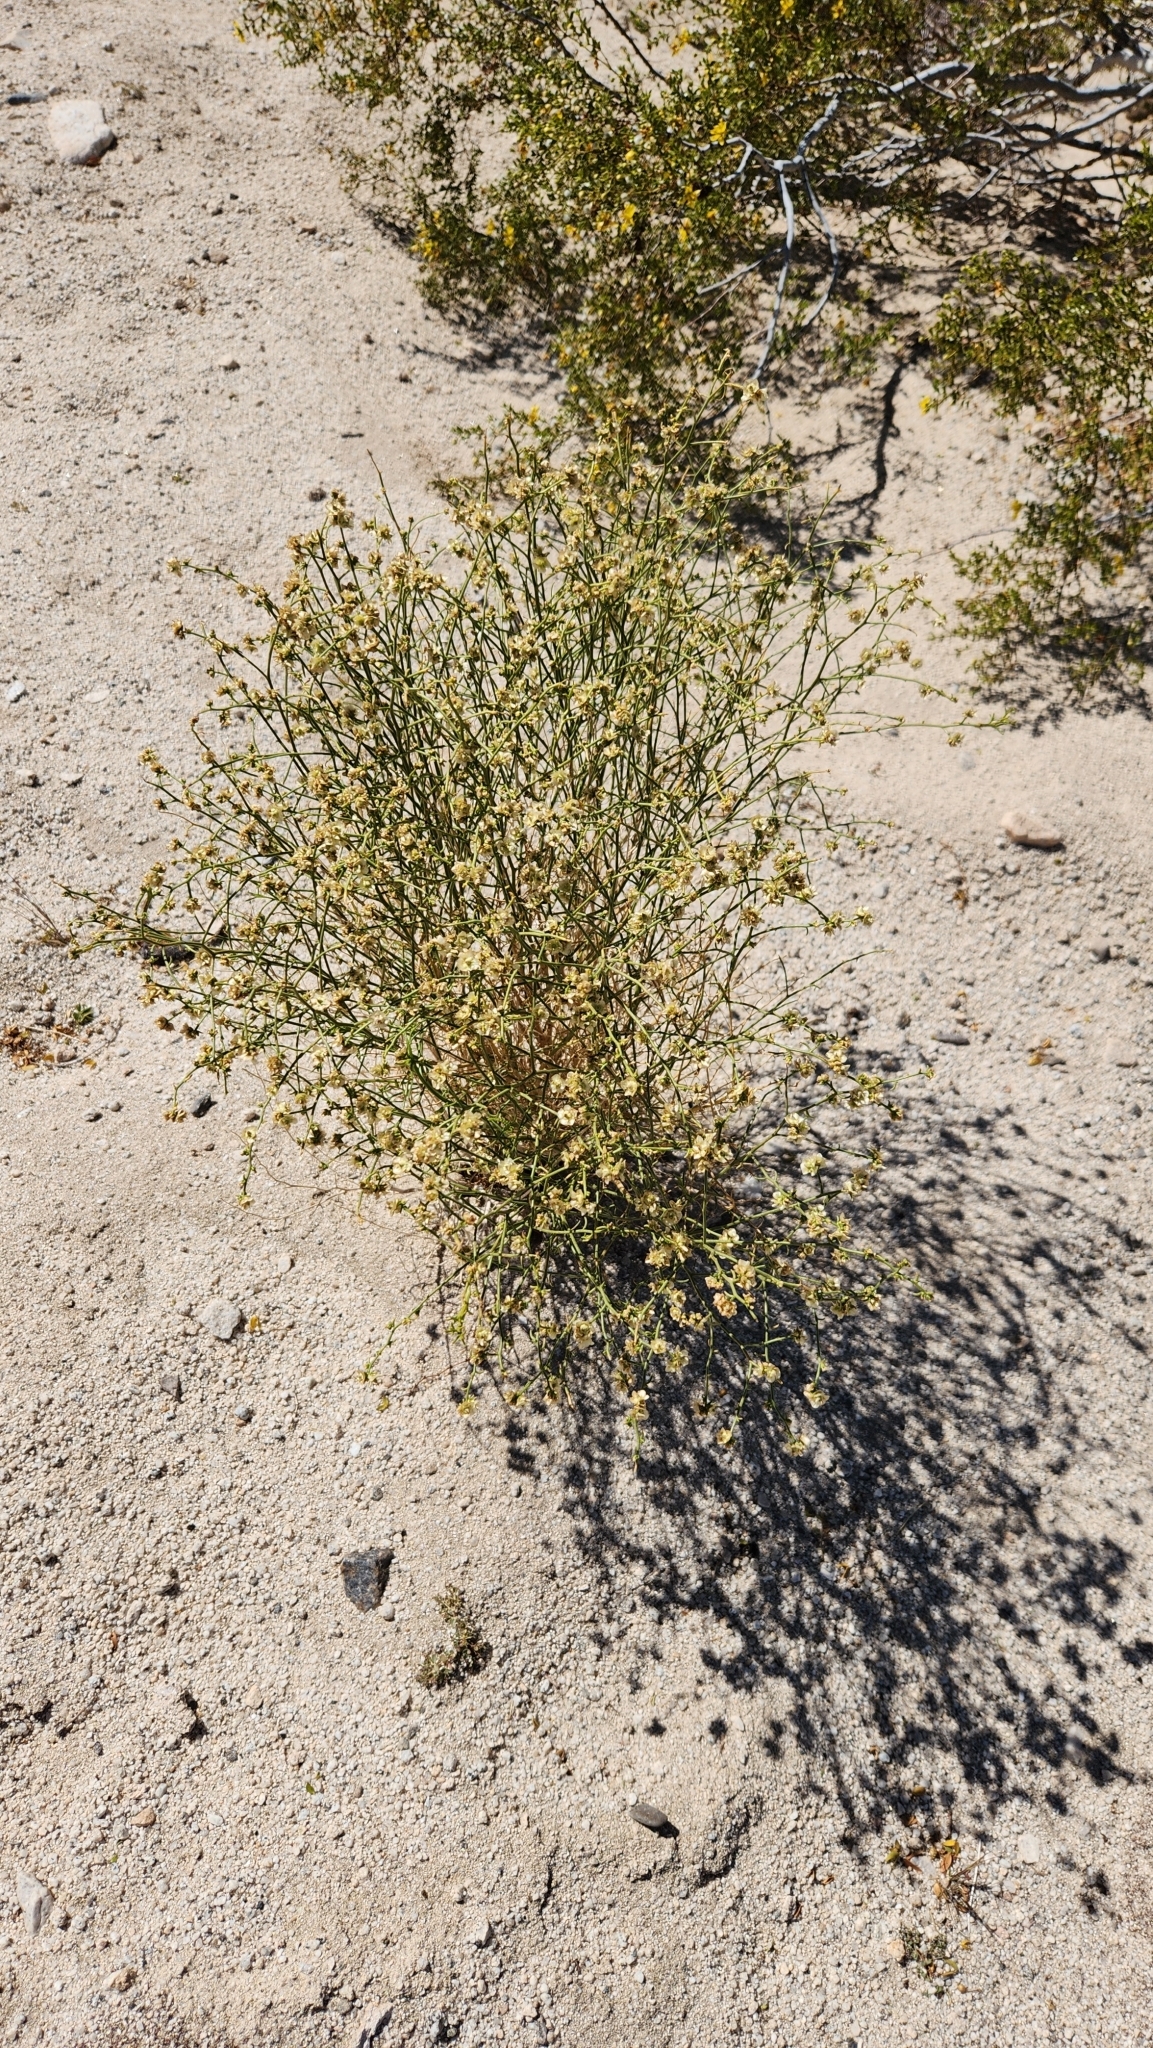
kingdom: Plantae
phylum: Tracheophyta
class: Magnoliopsida
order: Asterales
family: Asteraceae
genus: Ambrosia
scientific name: Ambrosia salsola
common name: Burrobrush
